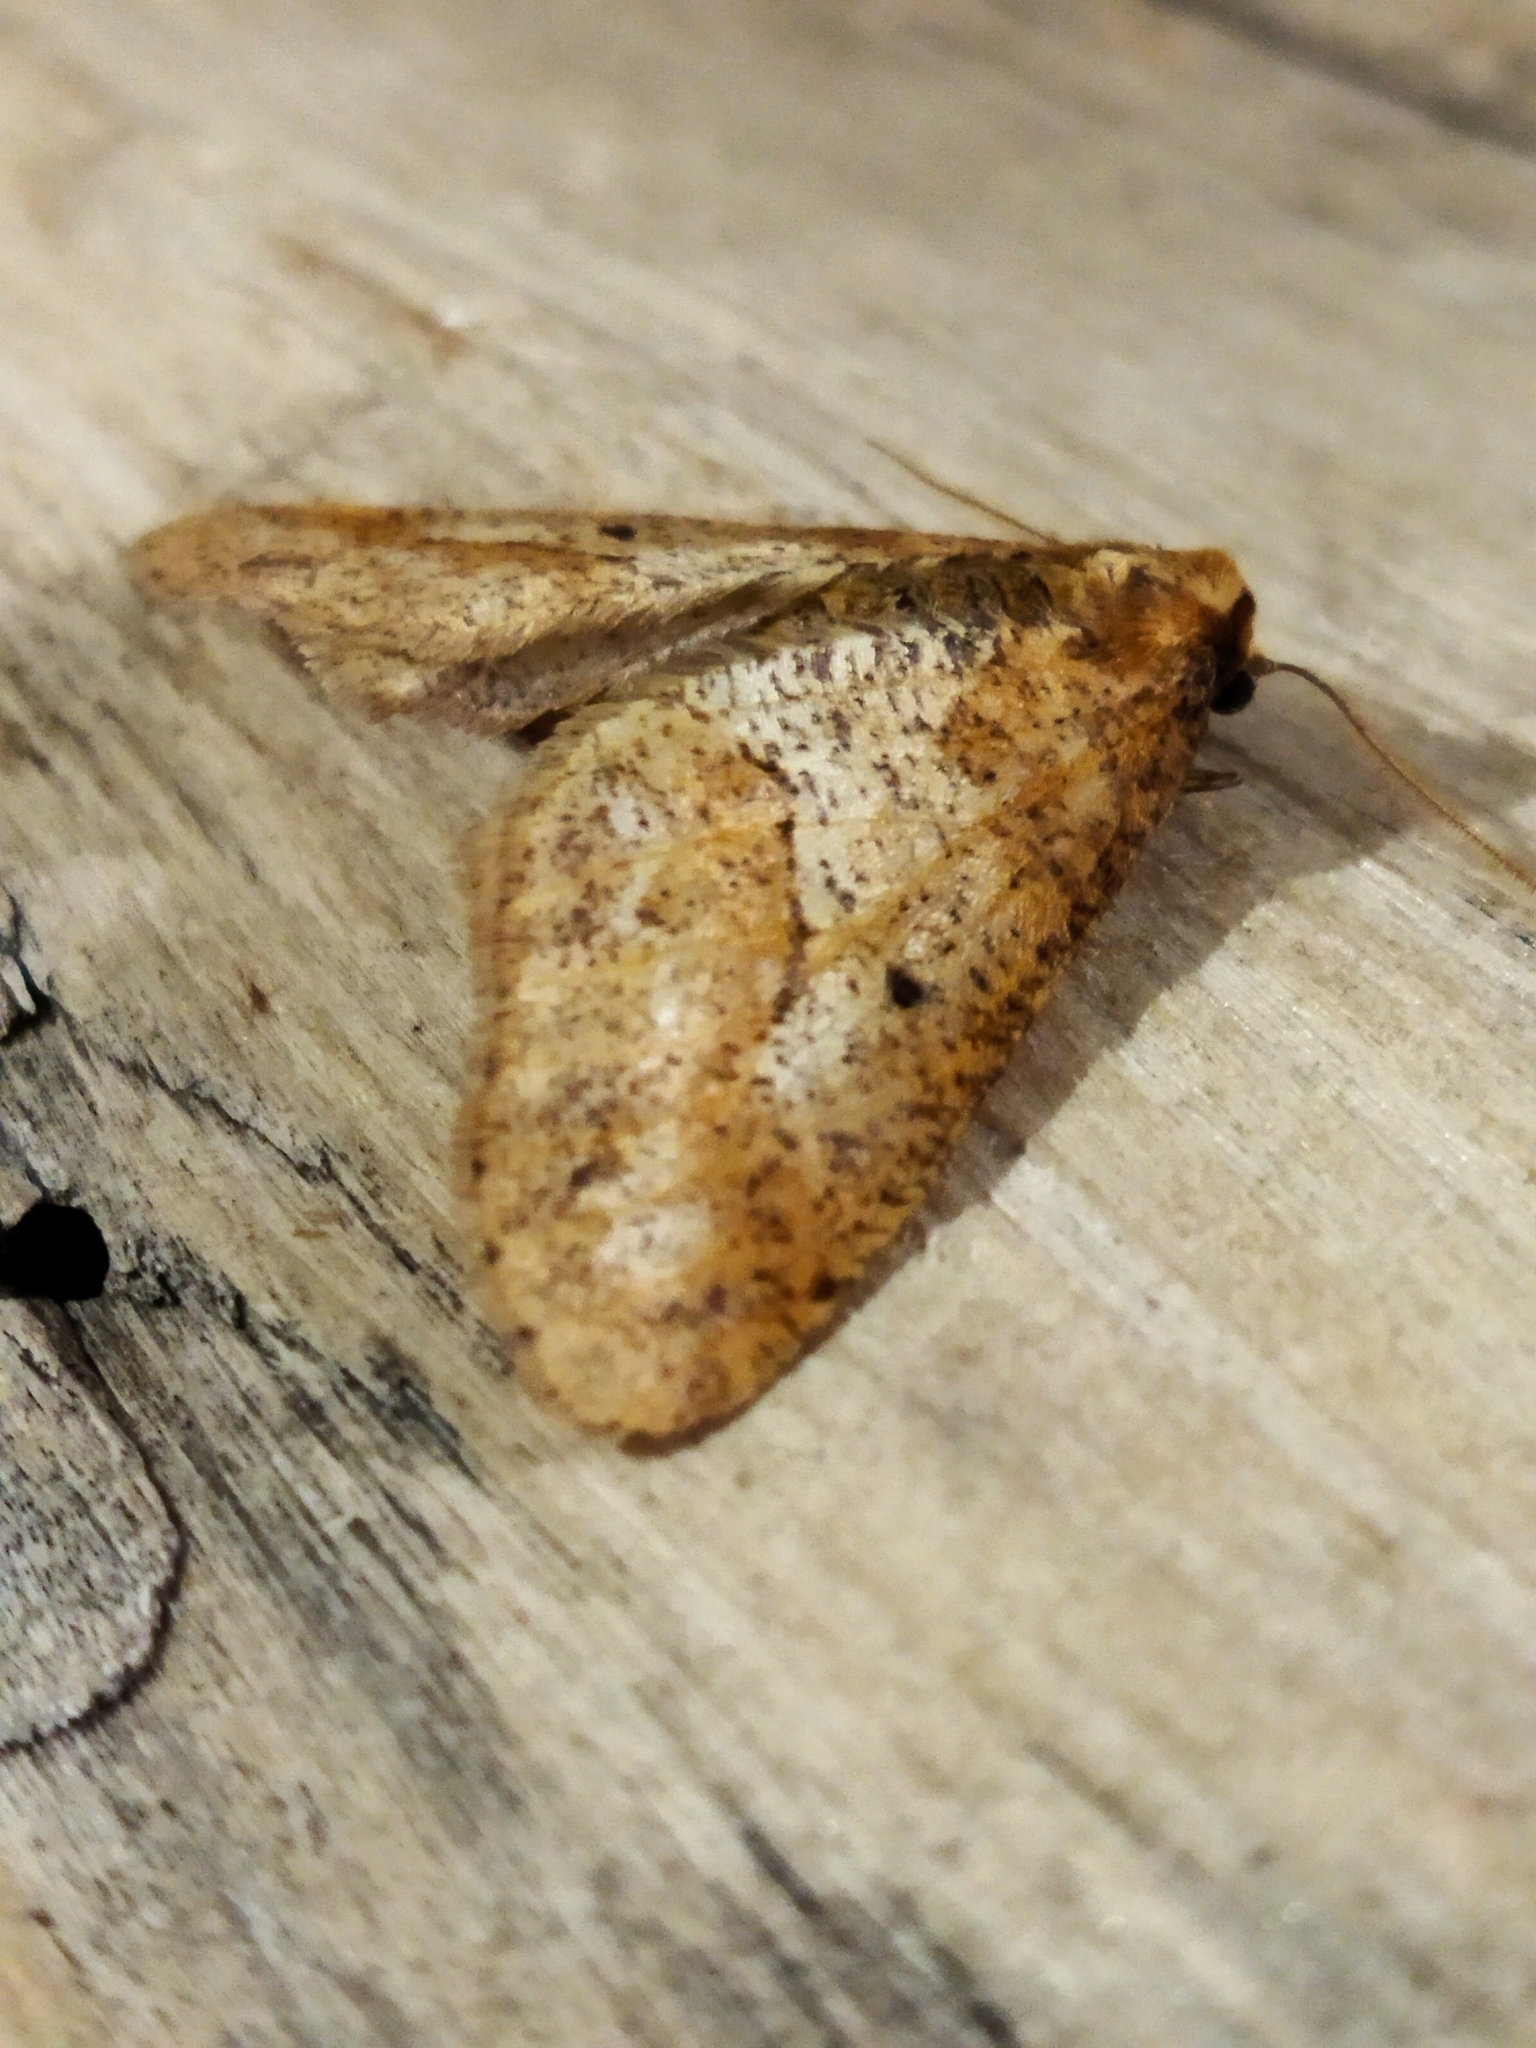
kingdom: Animalia
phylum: Arthropoda
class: Insecta
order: Lepidoptera
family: Geometridae
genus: Erannis
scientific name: Erannis defoliaria
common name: Mottled umber
